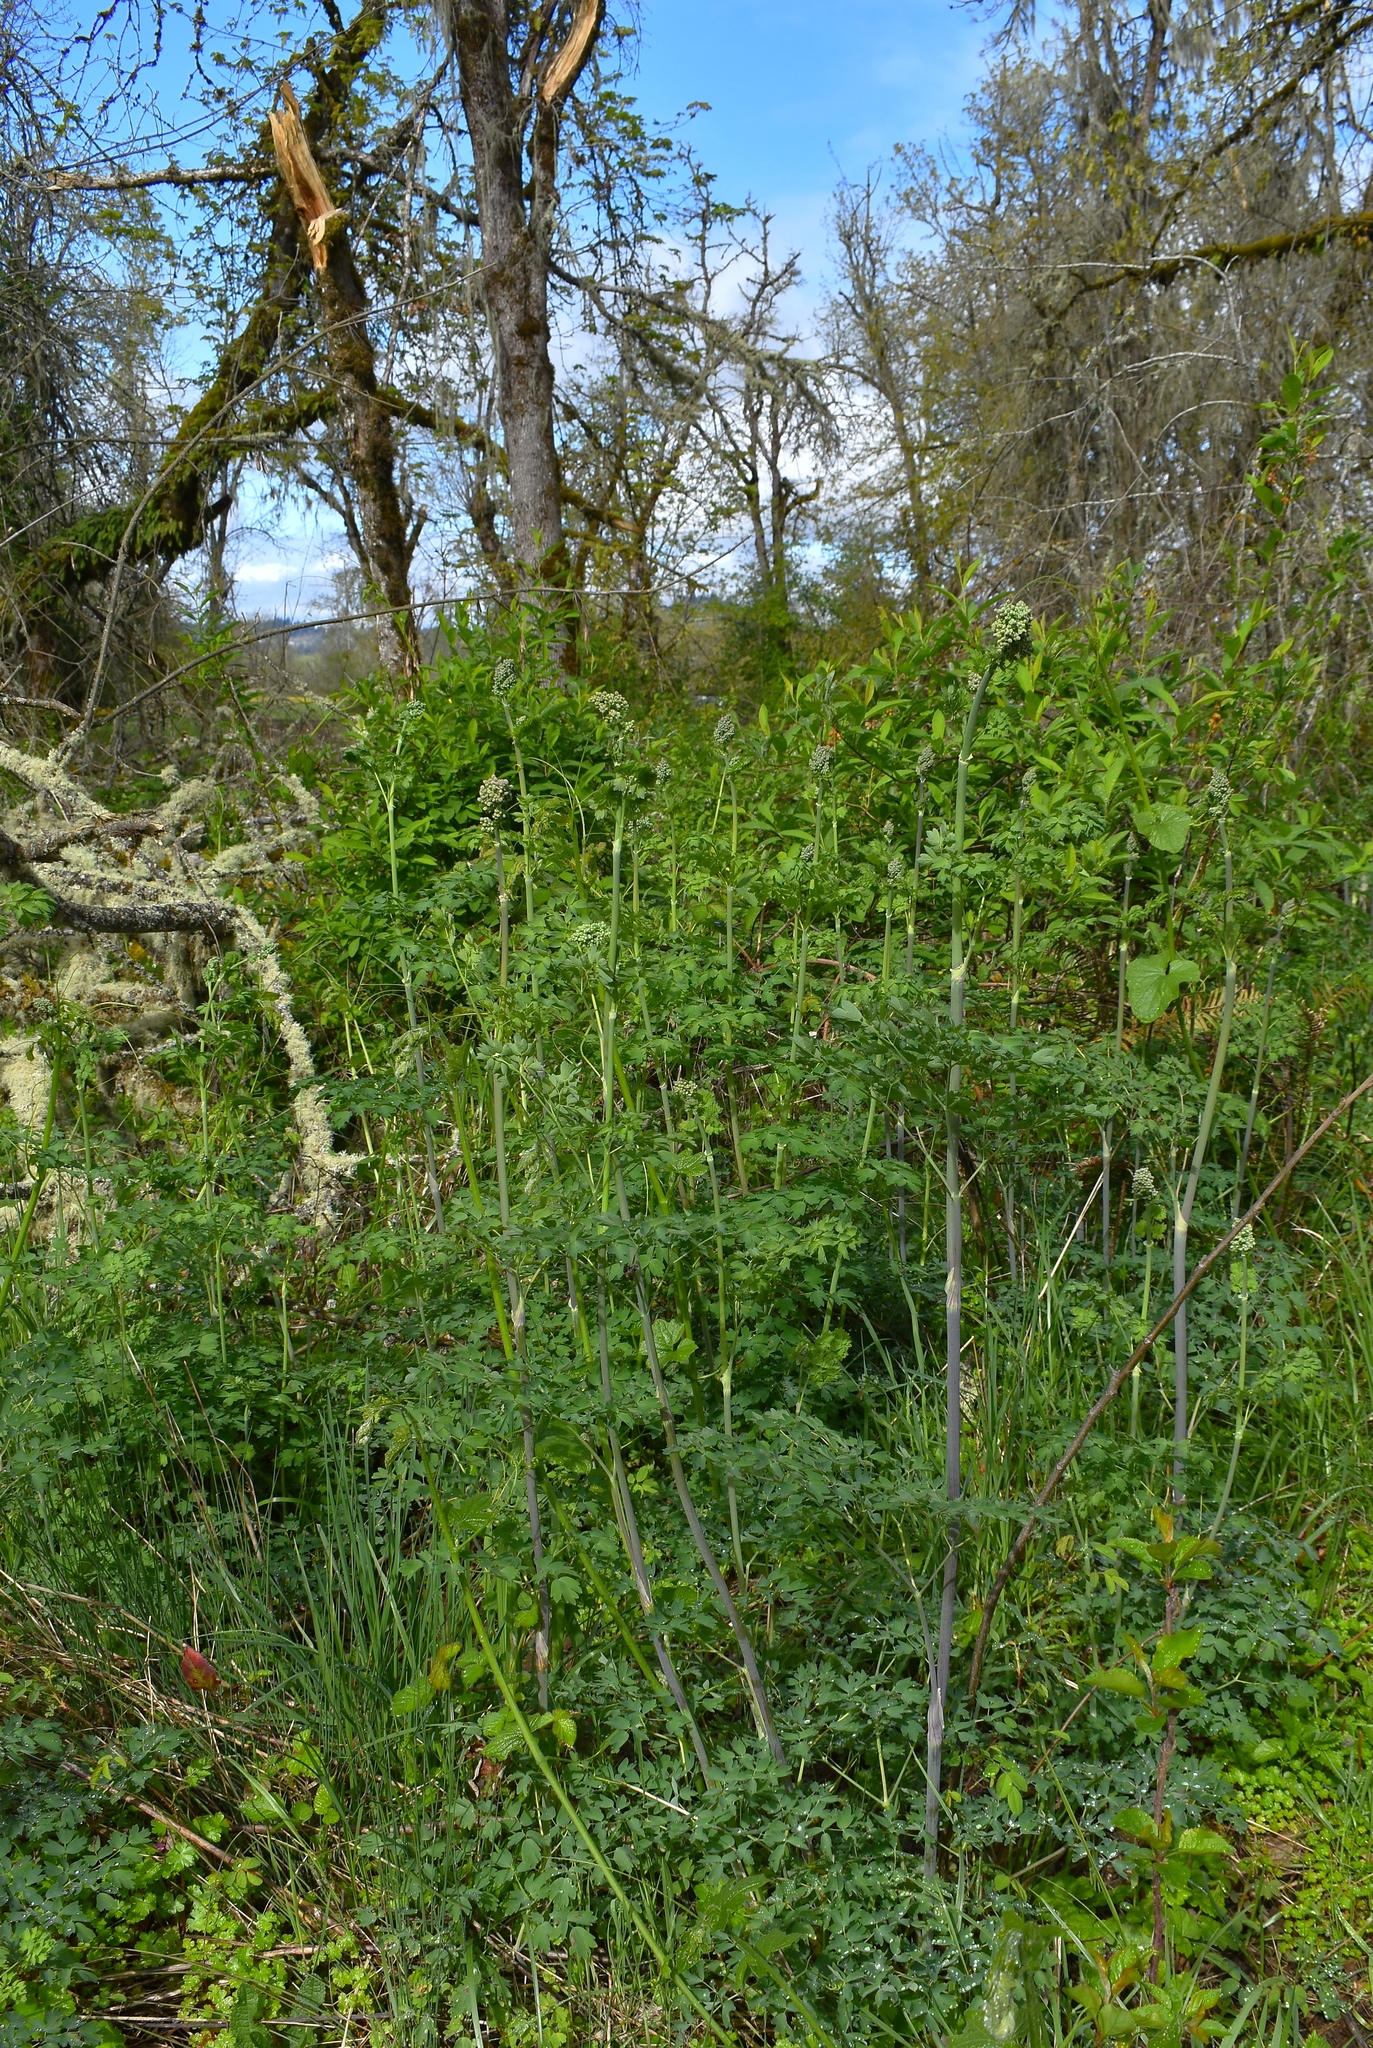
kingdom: Plantae
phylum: Tracheophyta
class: Magnoliopsida
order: Ranunculales
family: Ranunculaceae
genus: Thalictrum
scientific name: Thalictrum fendleri
